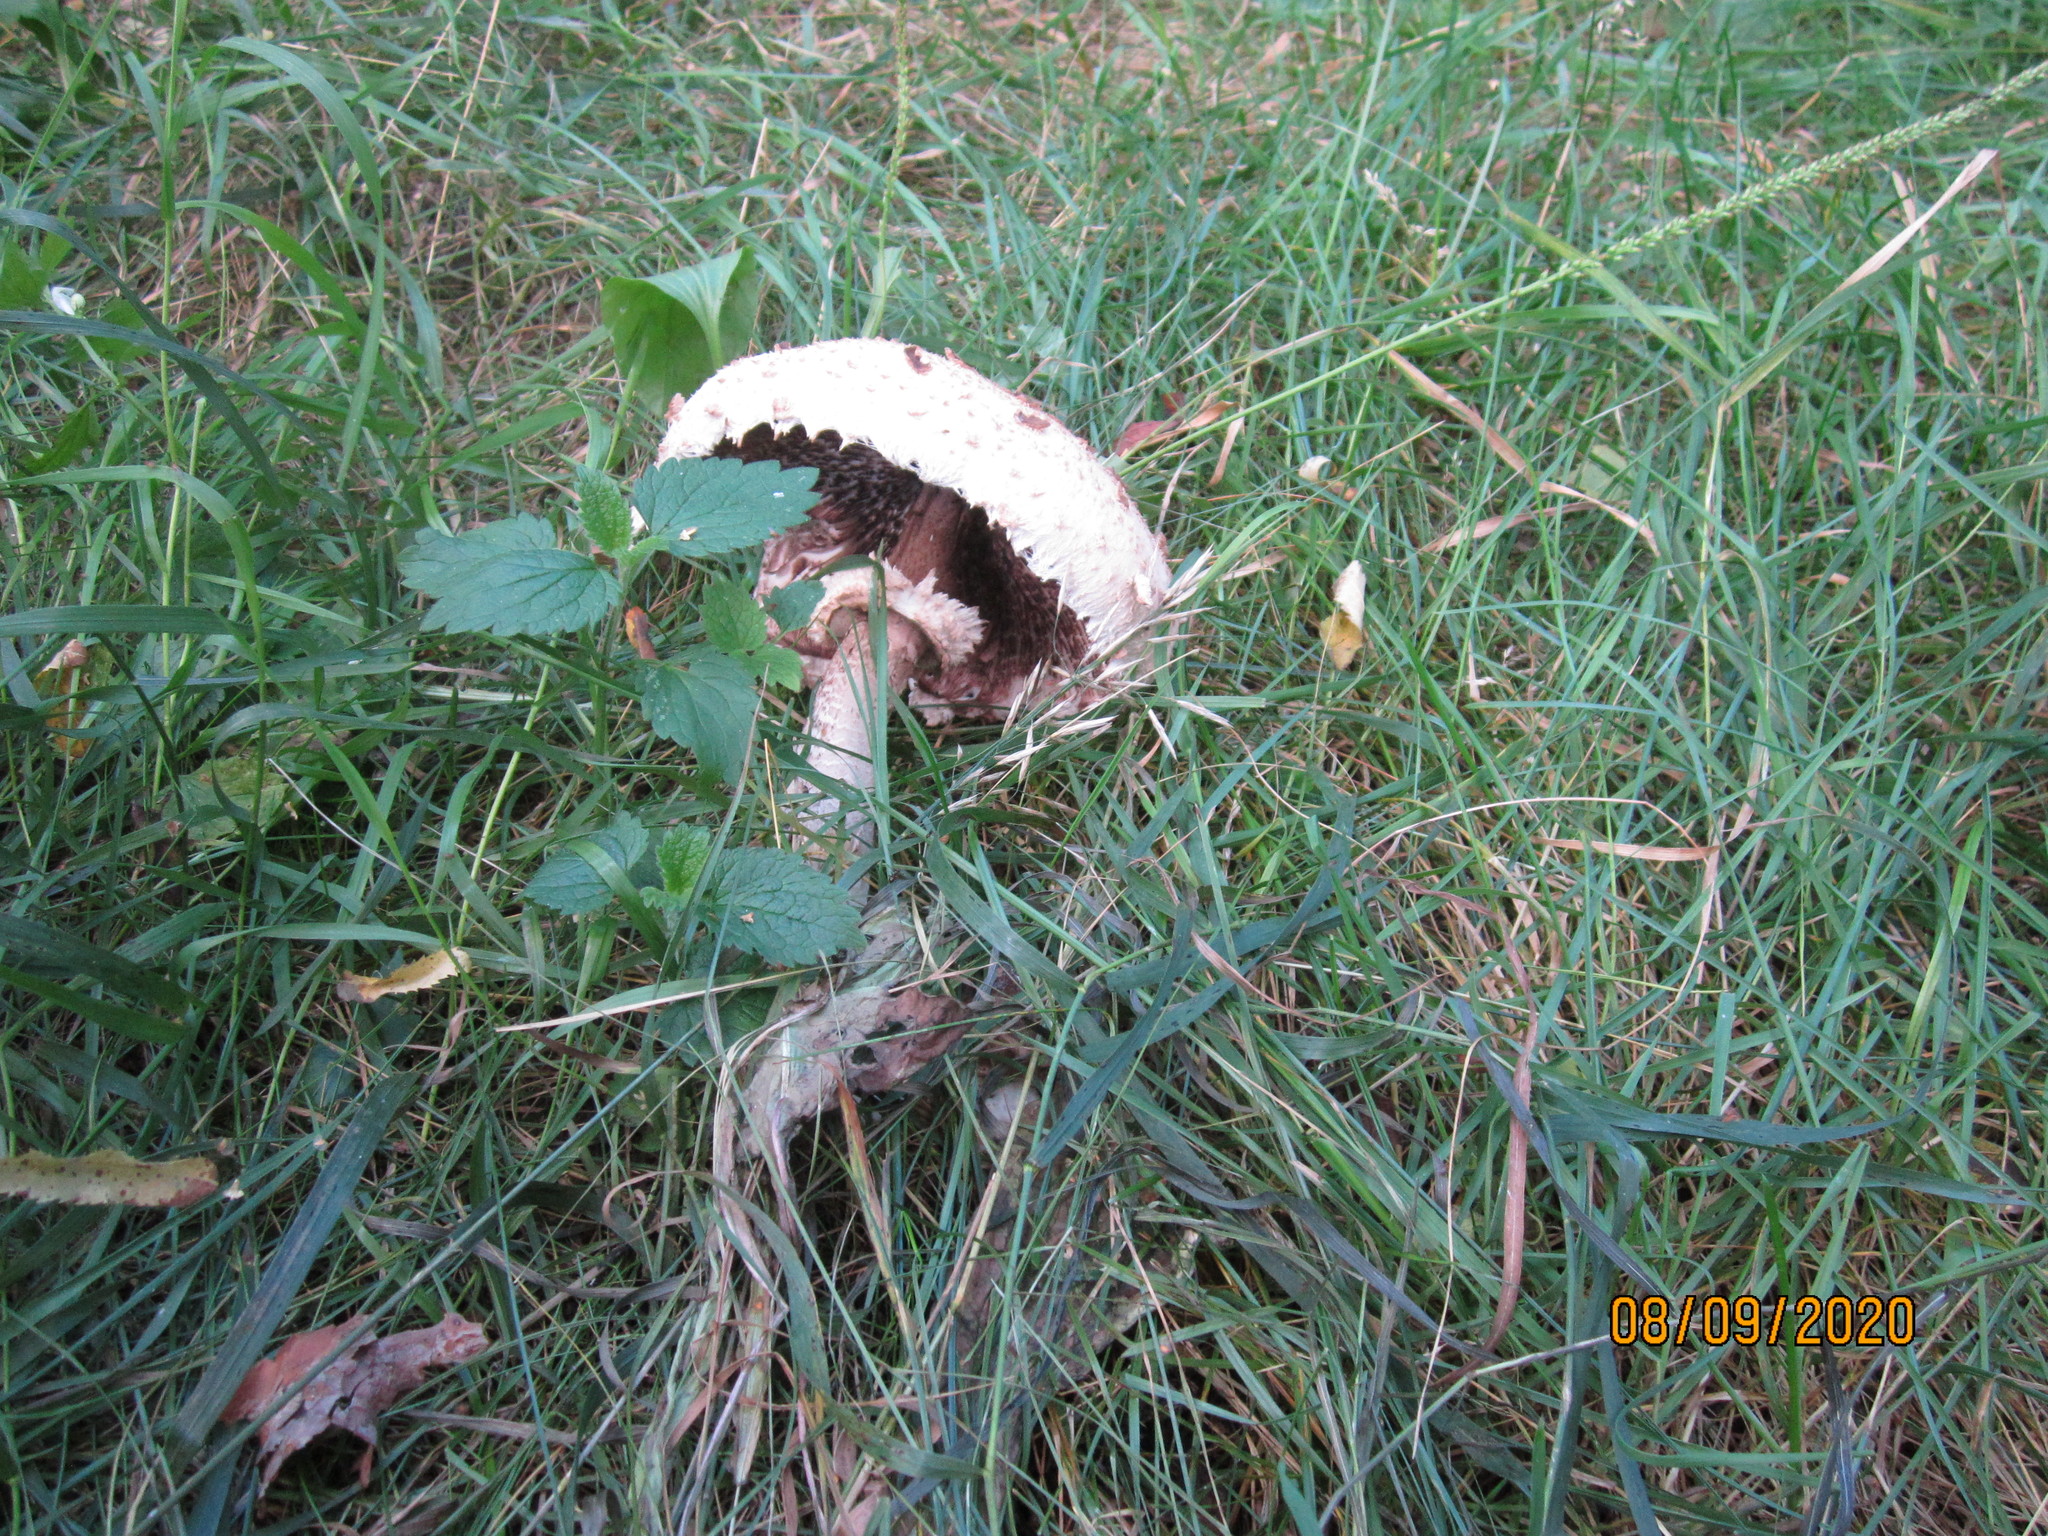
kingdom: Fungi
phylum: Basidiomycota
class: Agaricomycetes
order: Agaricales
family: Agaricaceae
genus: Macrolepiota
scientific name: Macrolepiota procera
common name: Parasol
